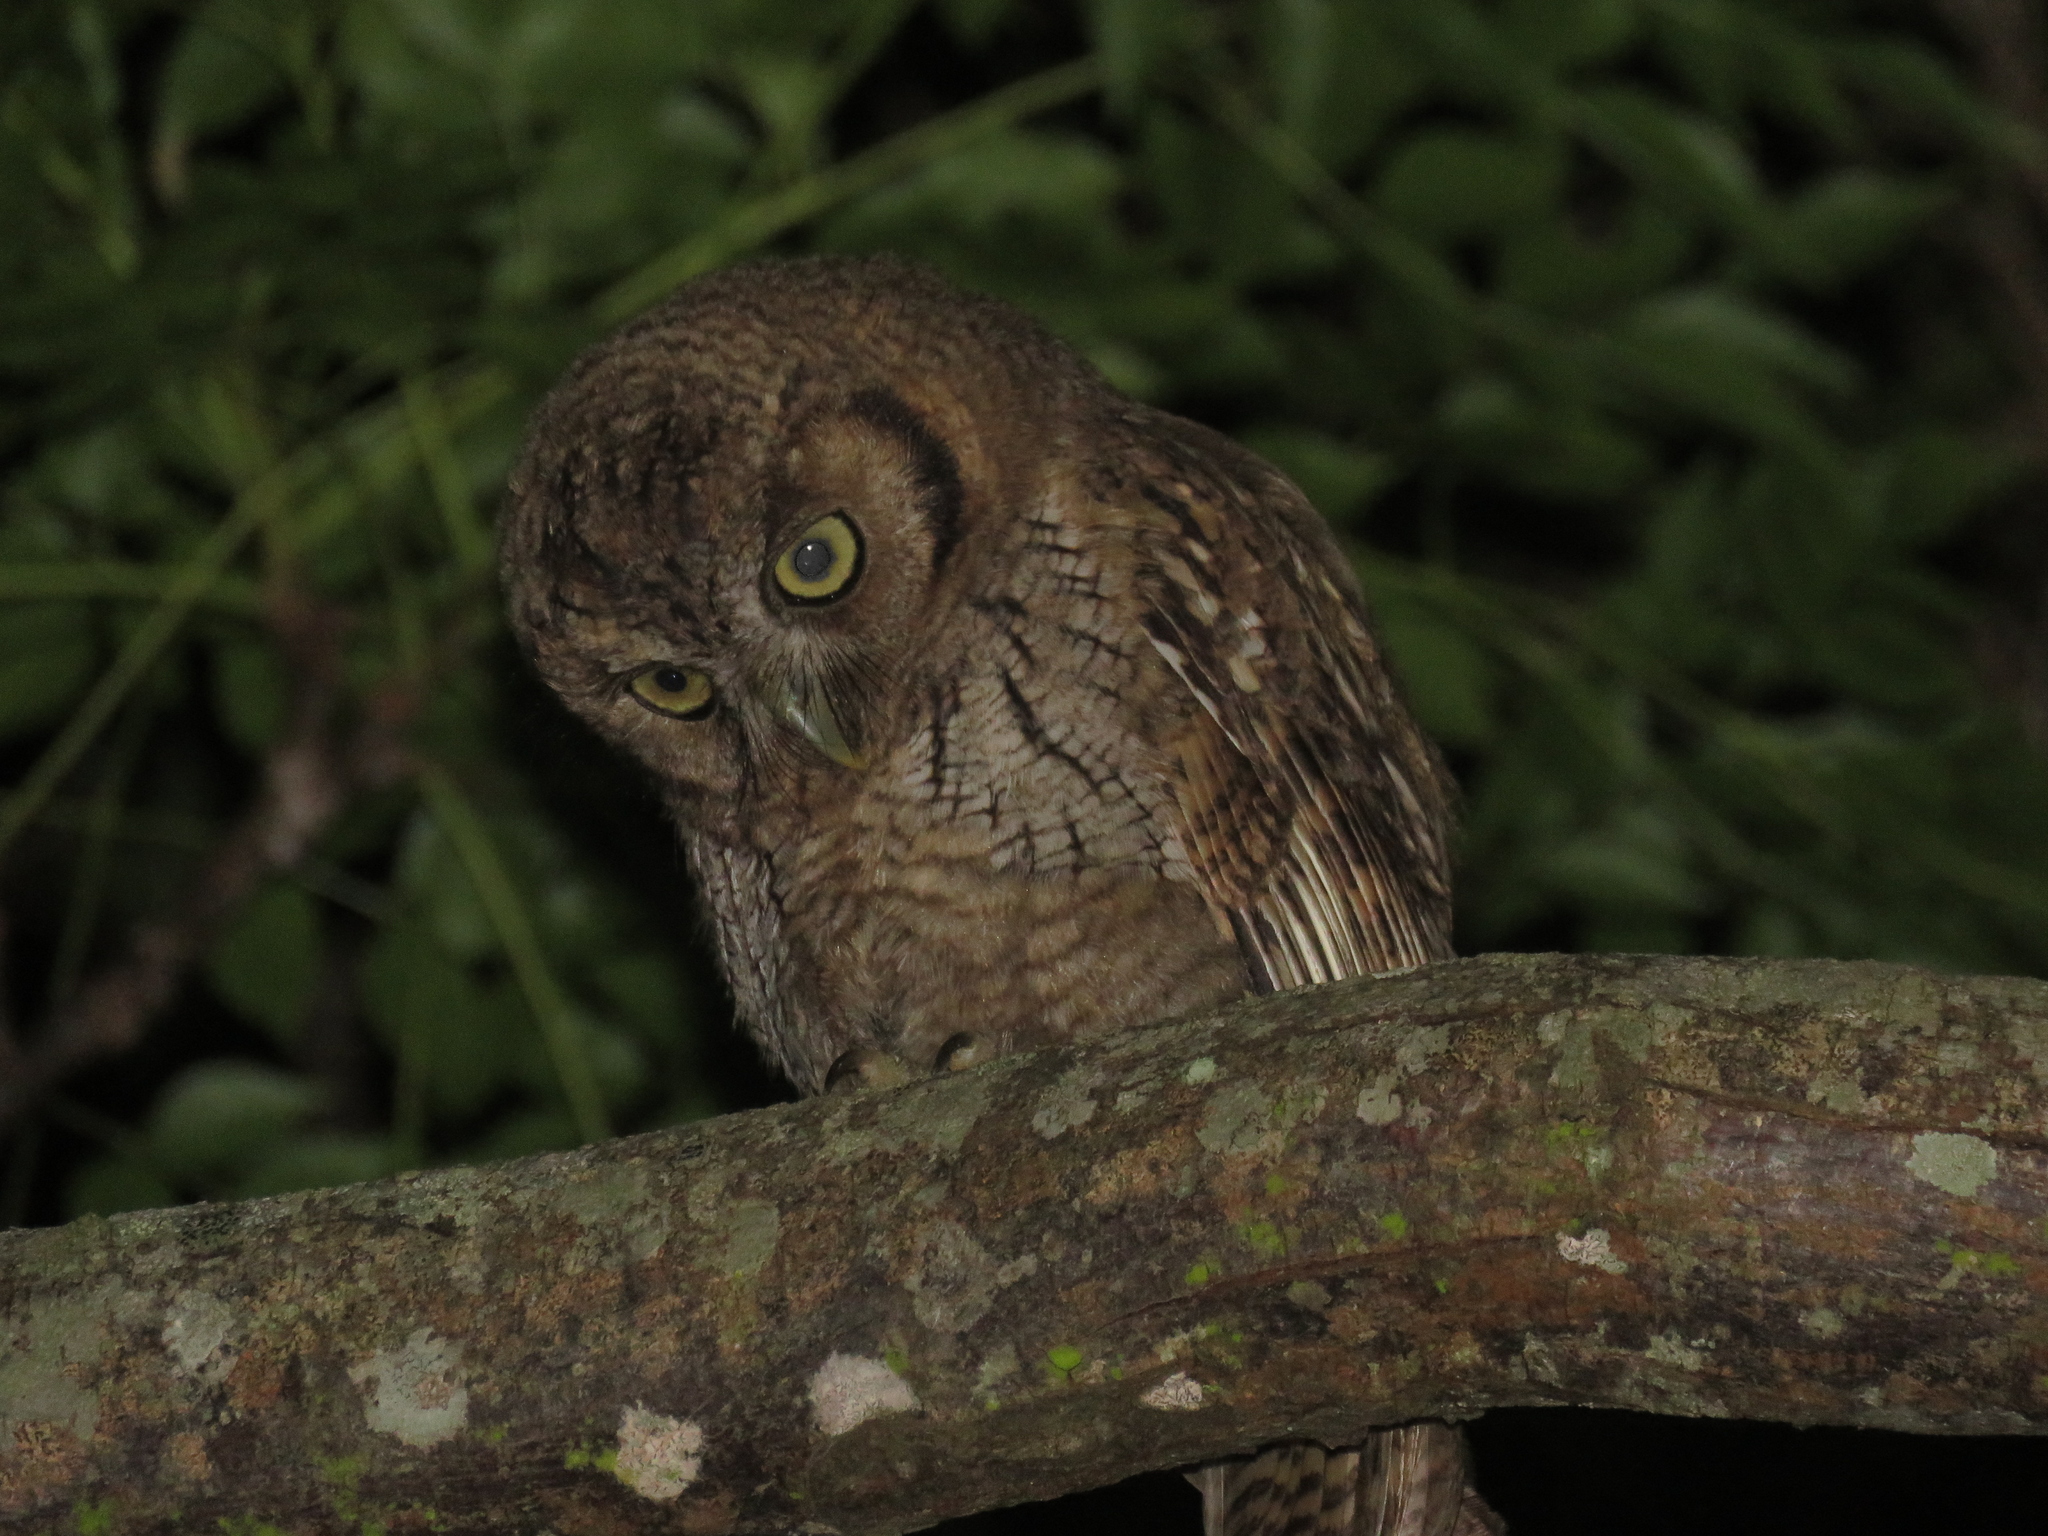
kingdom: Animalia
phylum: Chordata
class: Aves
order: Strigiformes
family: Strigidae
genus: Megascops
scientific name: Megascops choliba
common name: Tropical screech-owl
